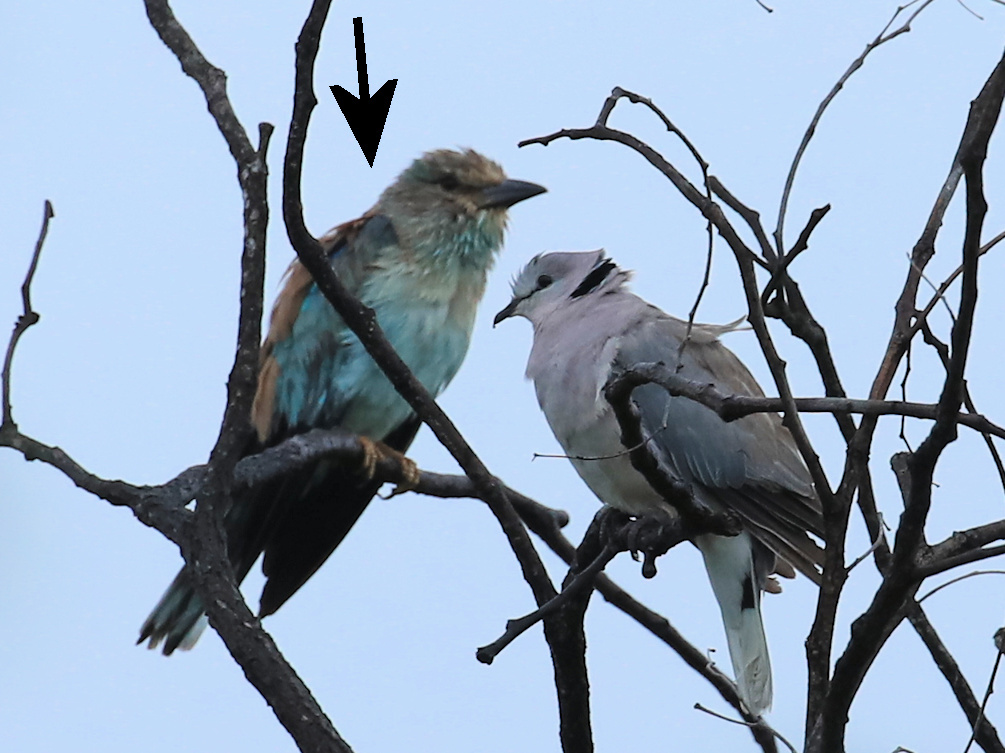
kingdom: Animalia
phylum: Chordata
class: Aves
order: Coraciiformes
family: Coraciidae
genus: Coracias
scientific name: Coracias garrulus
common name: European roller
